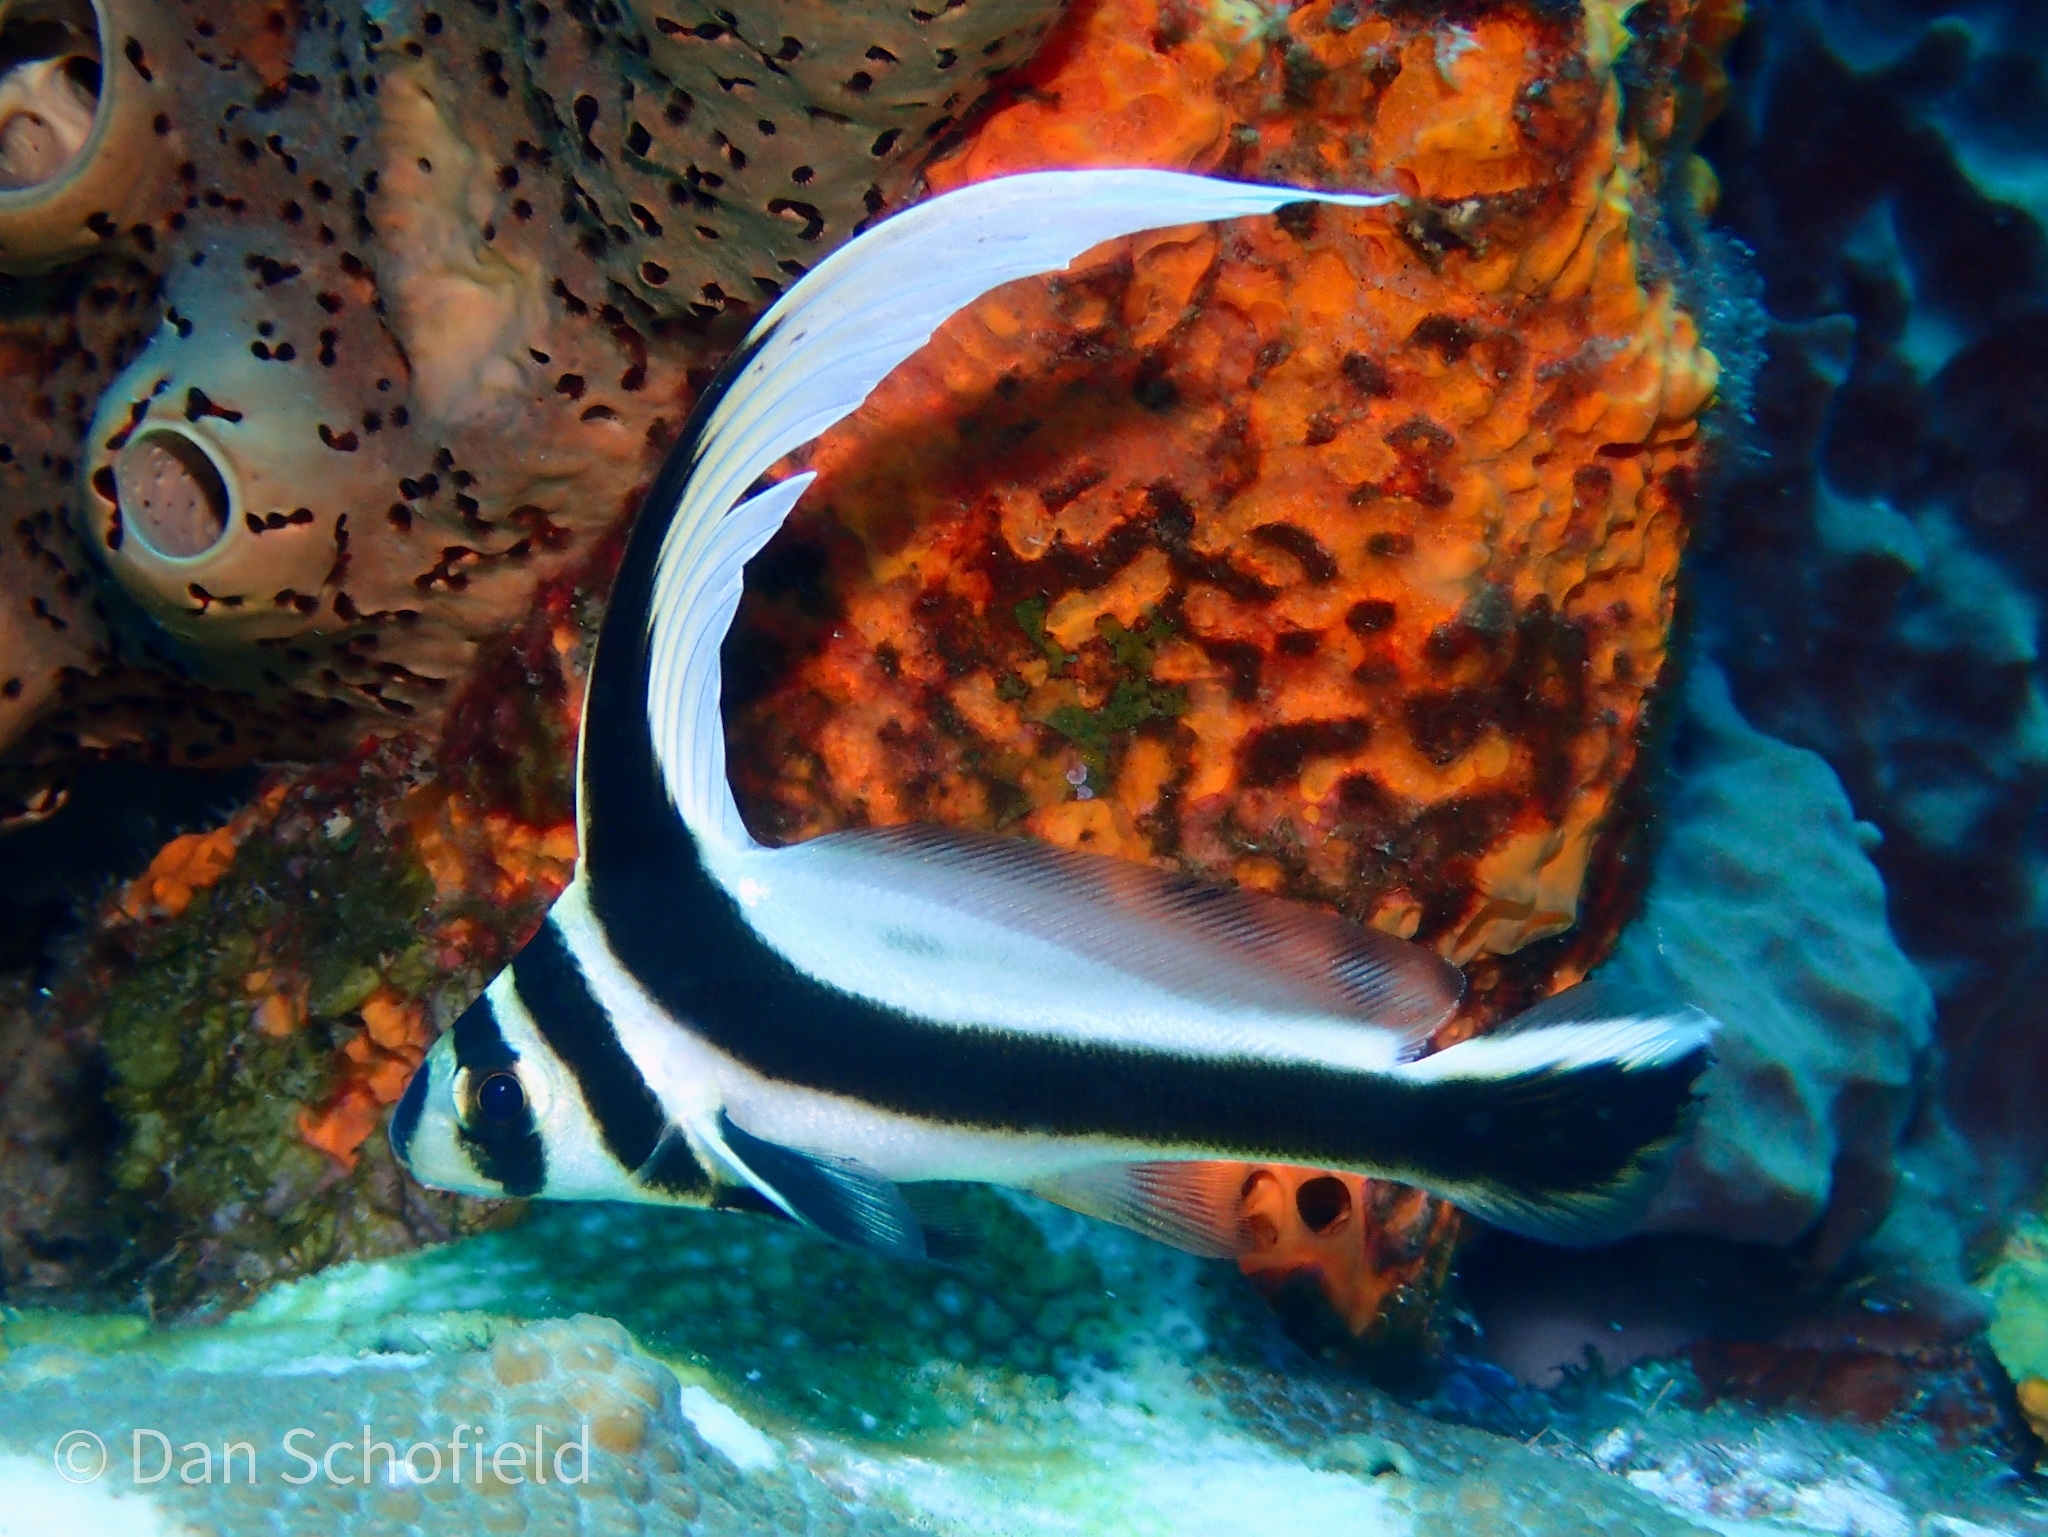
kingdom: Animalia
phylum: Chordata
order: Perciformes
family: Sciaenidae
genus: Equetus
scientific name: Equetus punctatus
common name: Spotted drum
